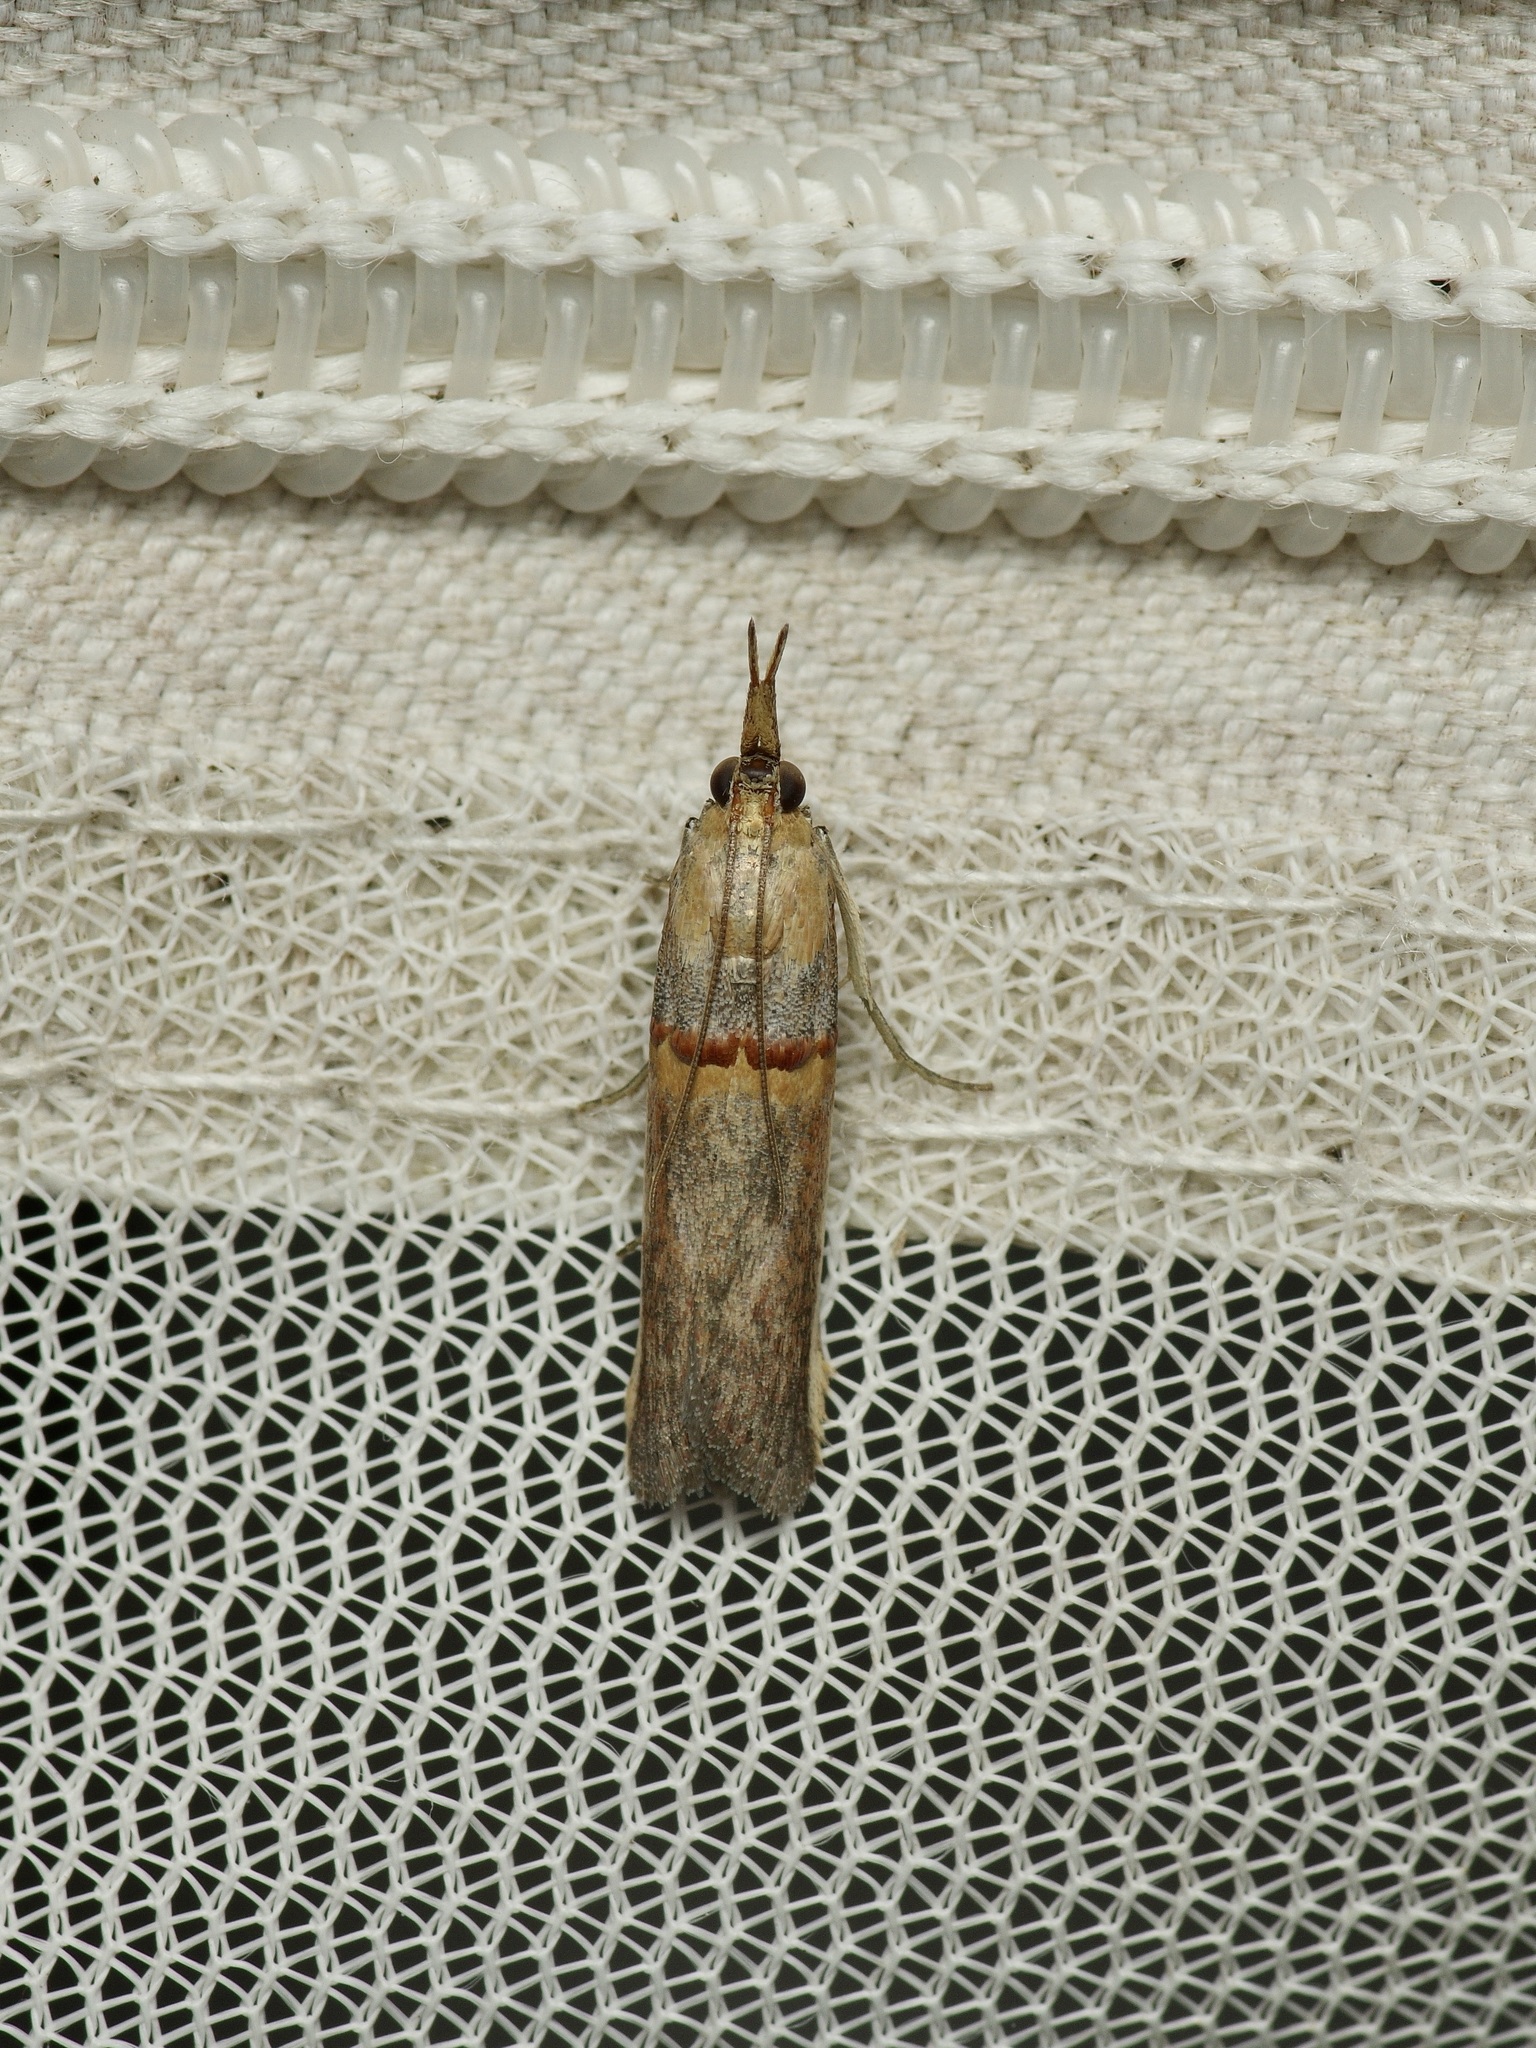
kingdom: Animalia
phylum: Arthropoda
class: Insecta
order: Lepidoptera
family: Pyralidae
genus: Etiella
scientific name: Etiella zinckenella
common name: Gold-banded etiella moth
